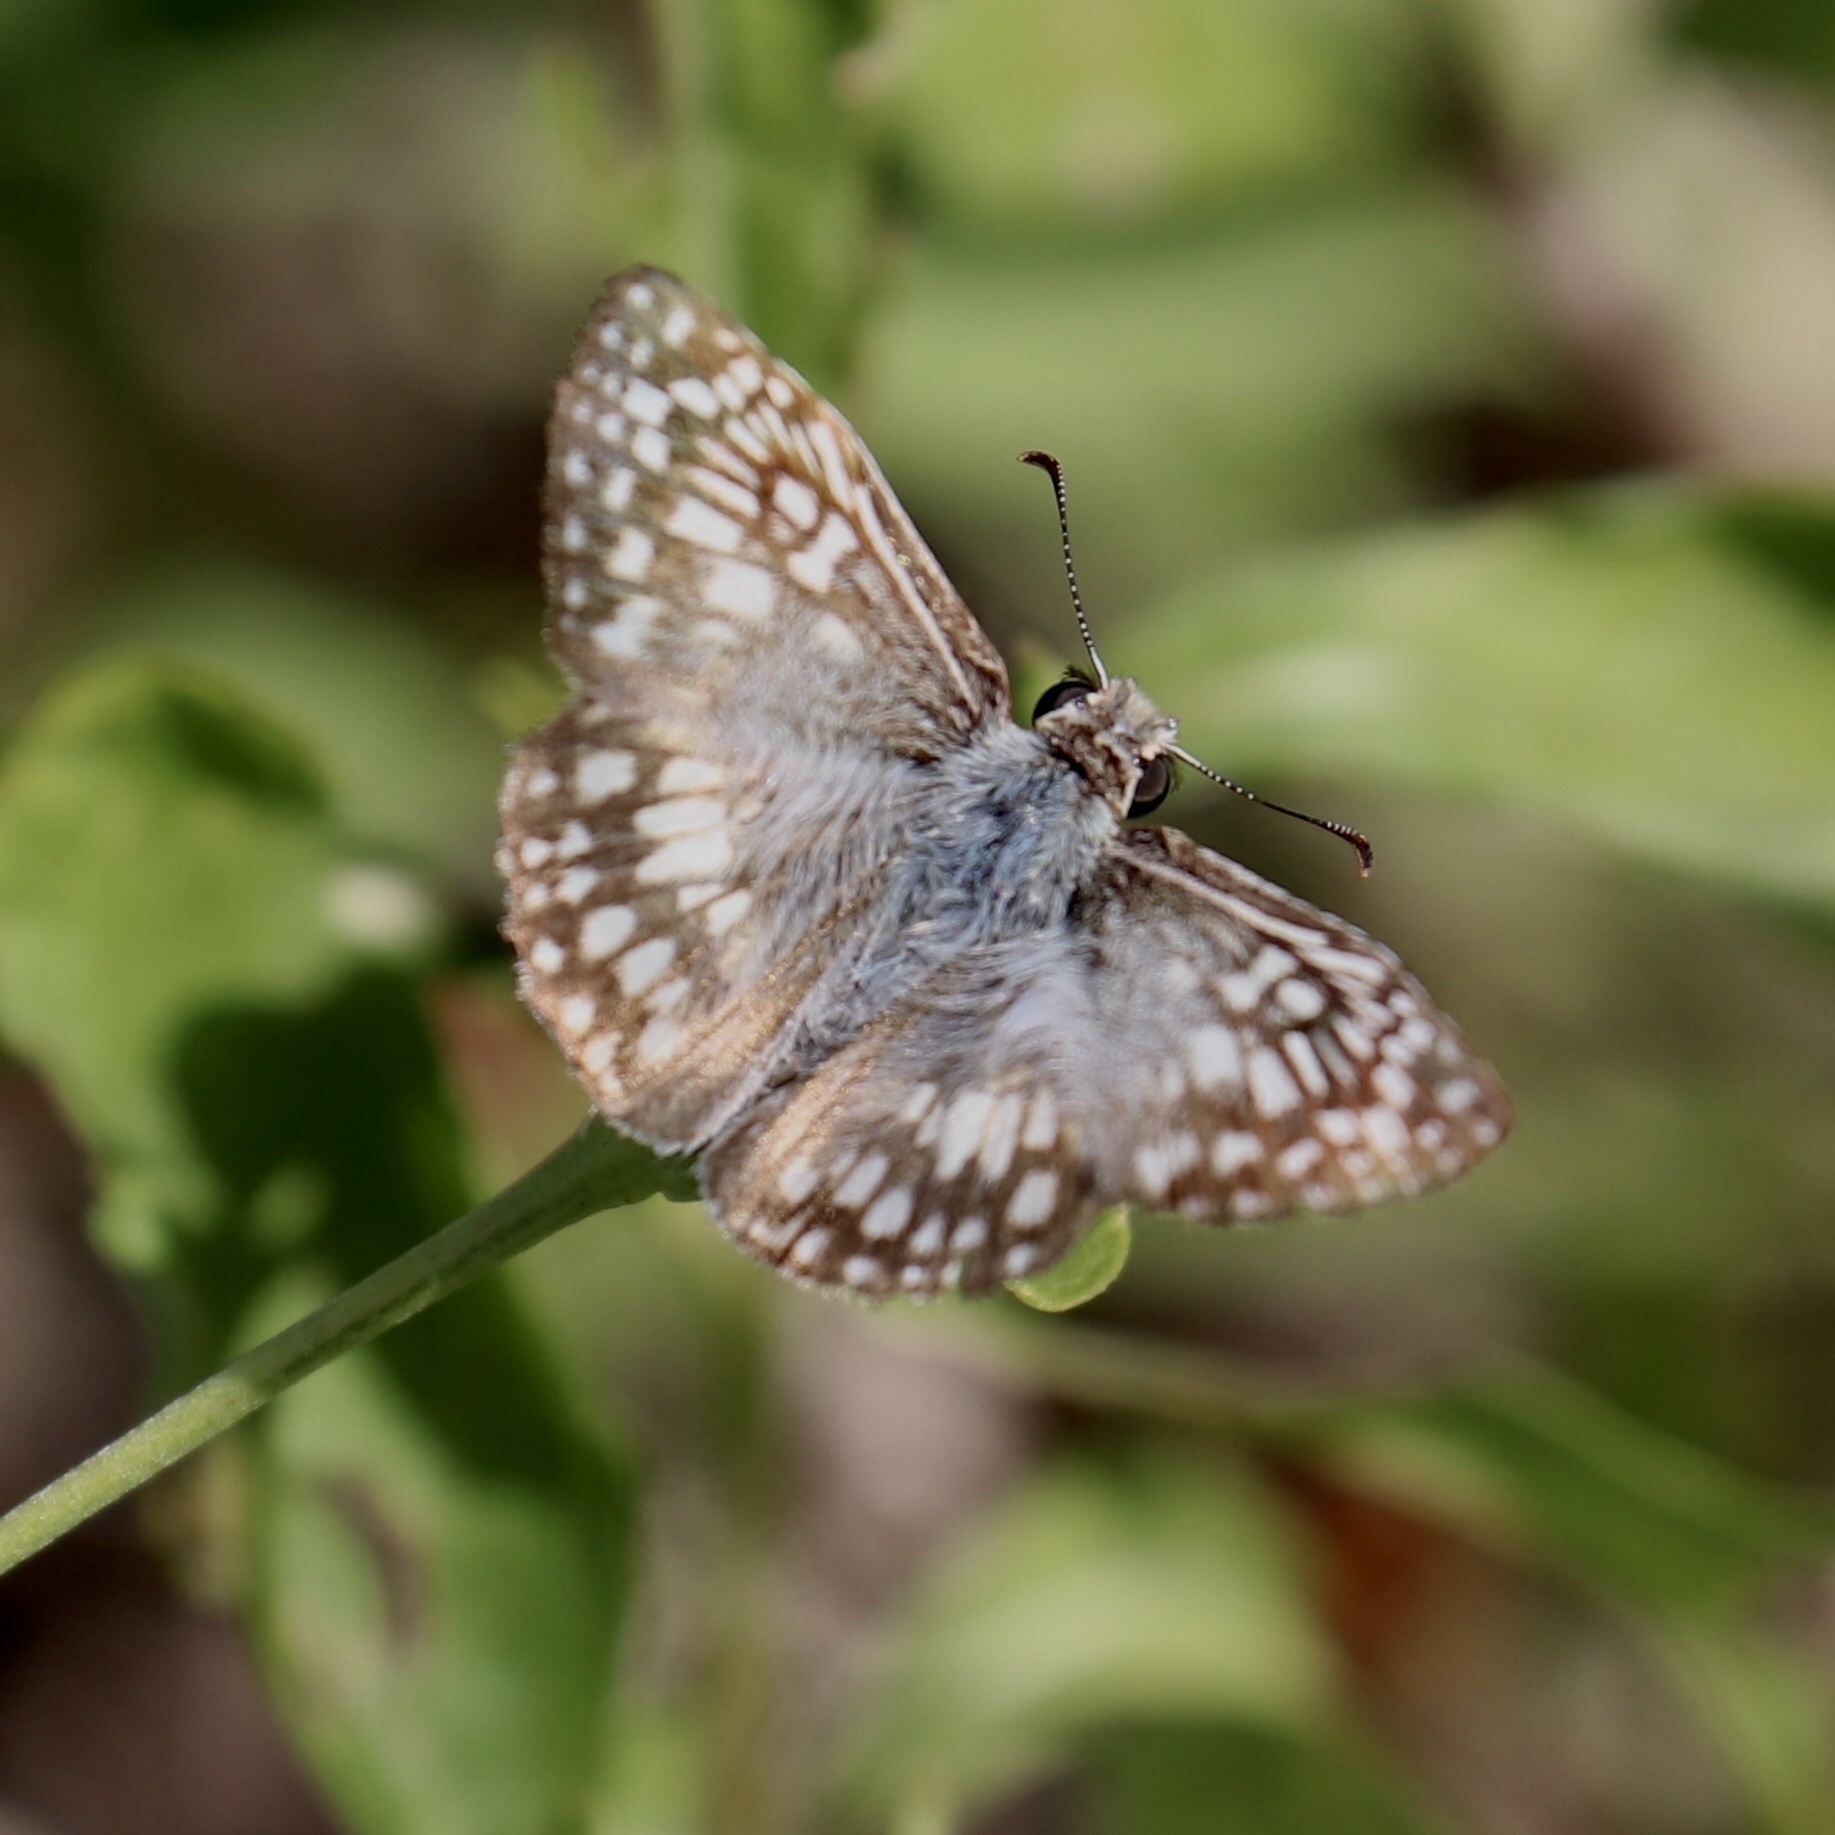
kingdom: Animalia
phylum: Arthropoda
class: Insecta
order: Lepidoptera
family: Hesperiidae
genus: Pyrgus
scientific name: Pyrgus oileus
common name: Tropical checkered-skipper
